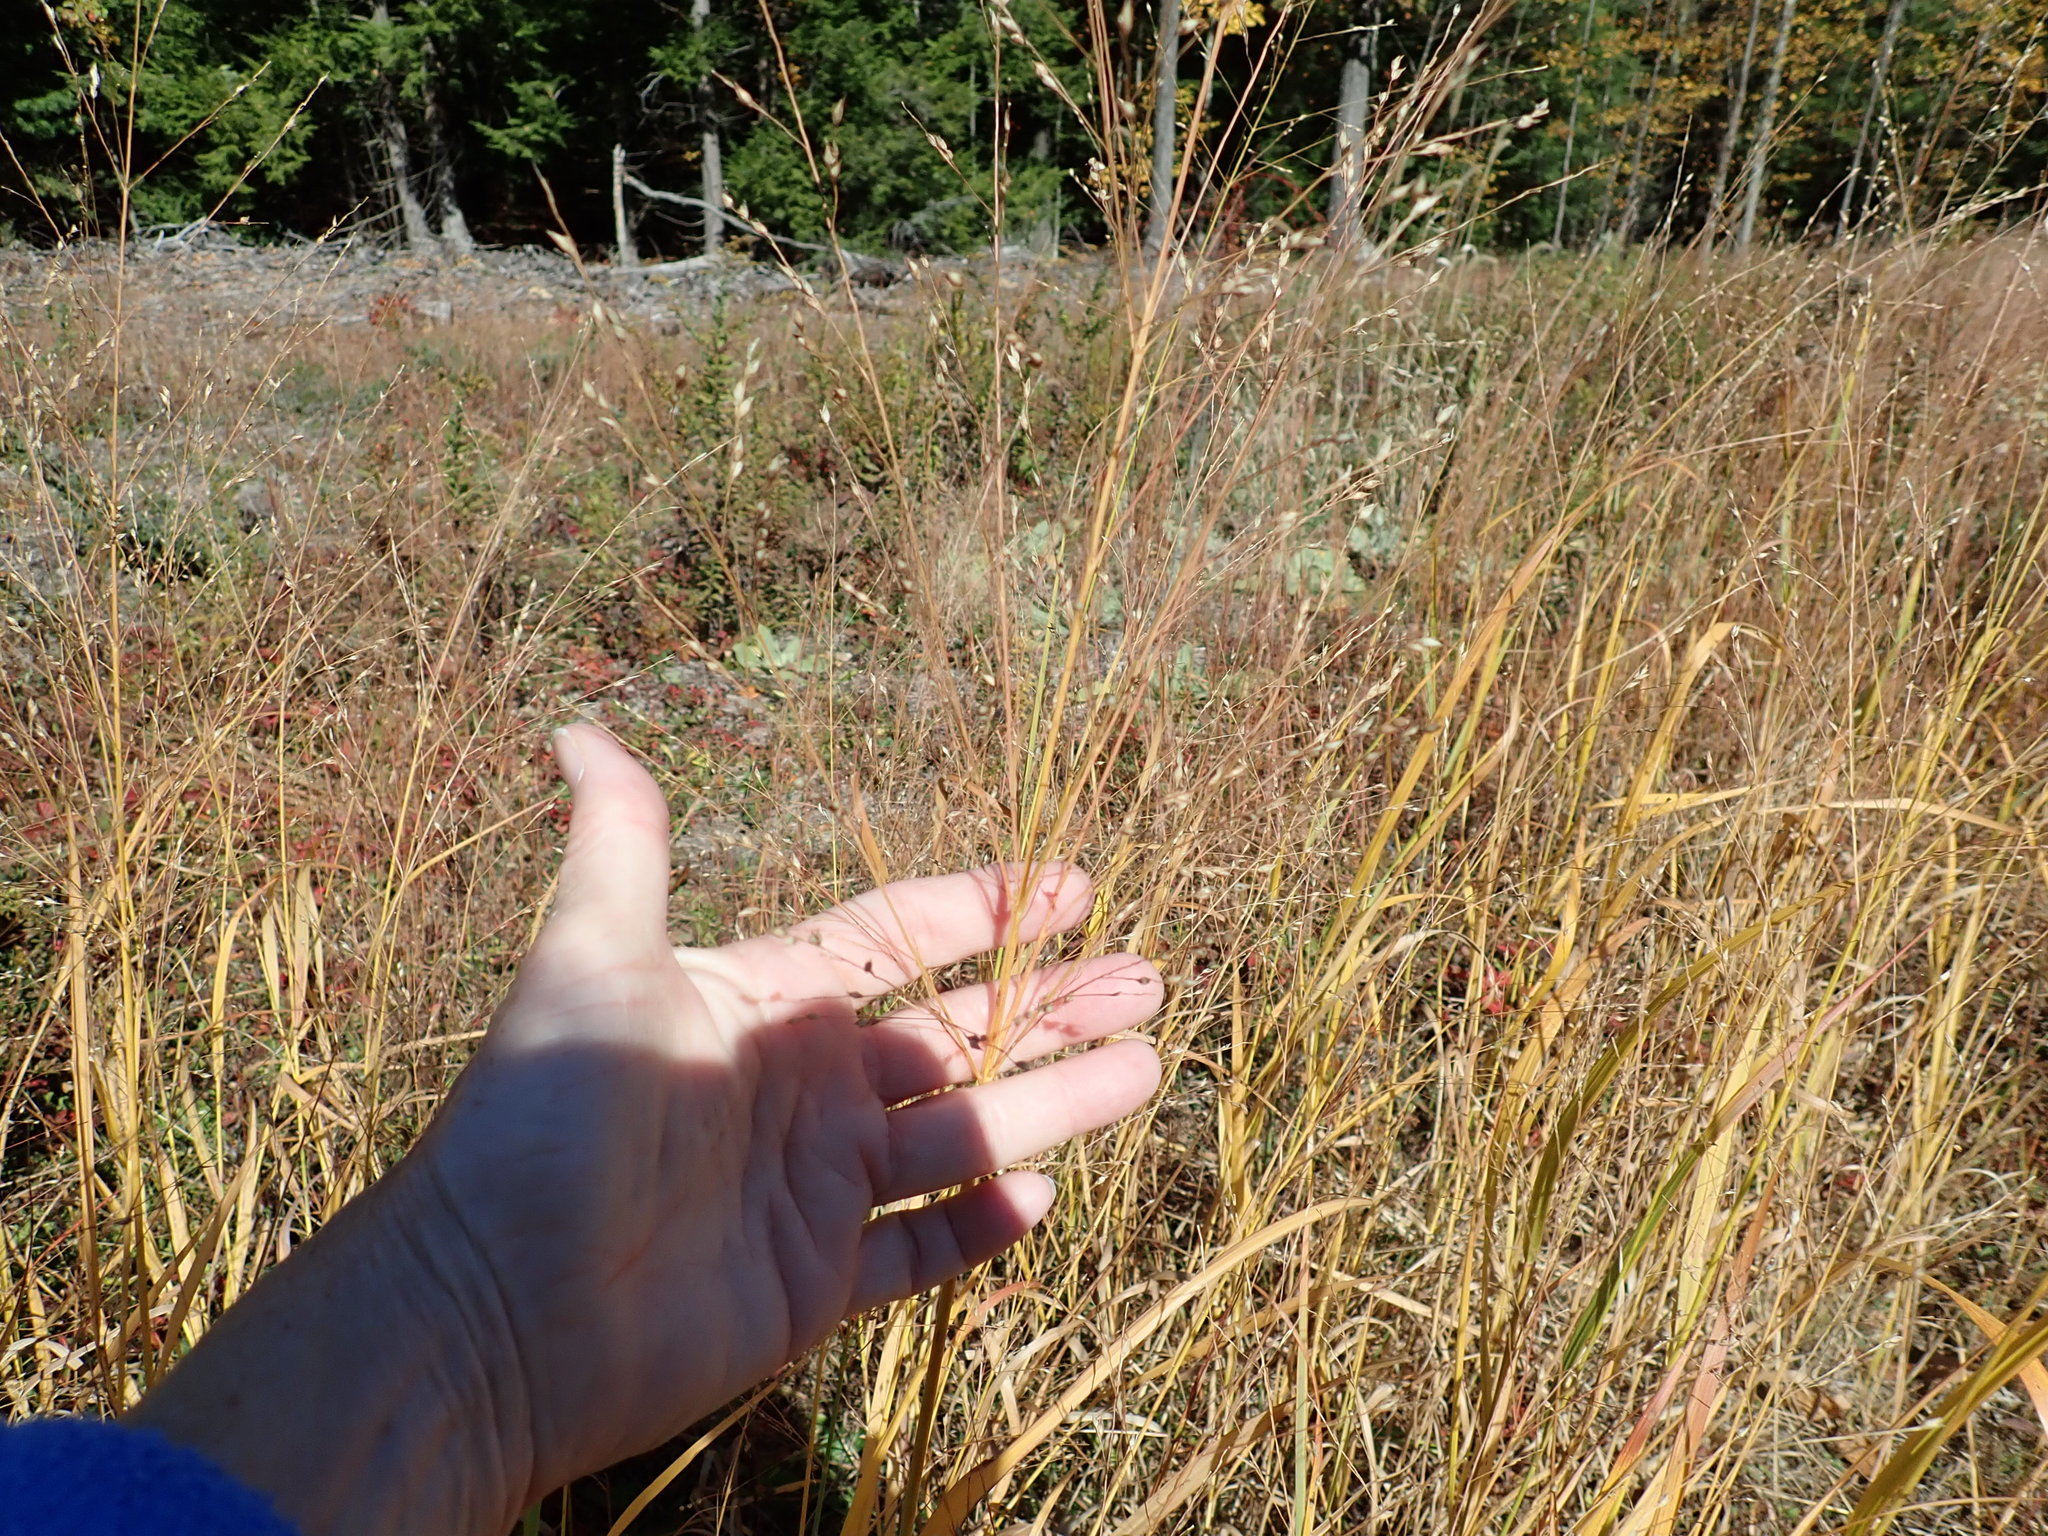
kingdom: Plantae
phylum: Tracheophyta
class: Liliopsida
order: Poales
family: Poaceae
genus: Panicum
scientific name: Panicum virgatum
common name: Switchgrass
